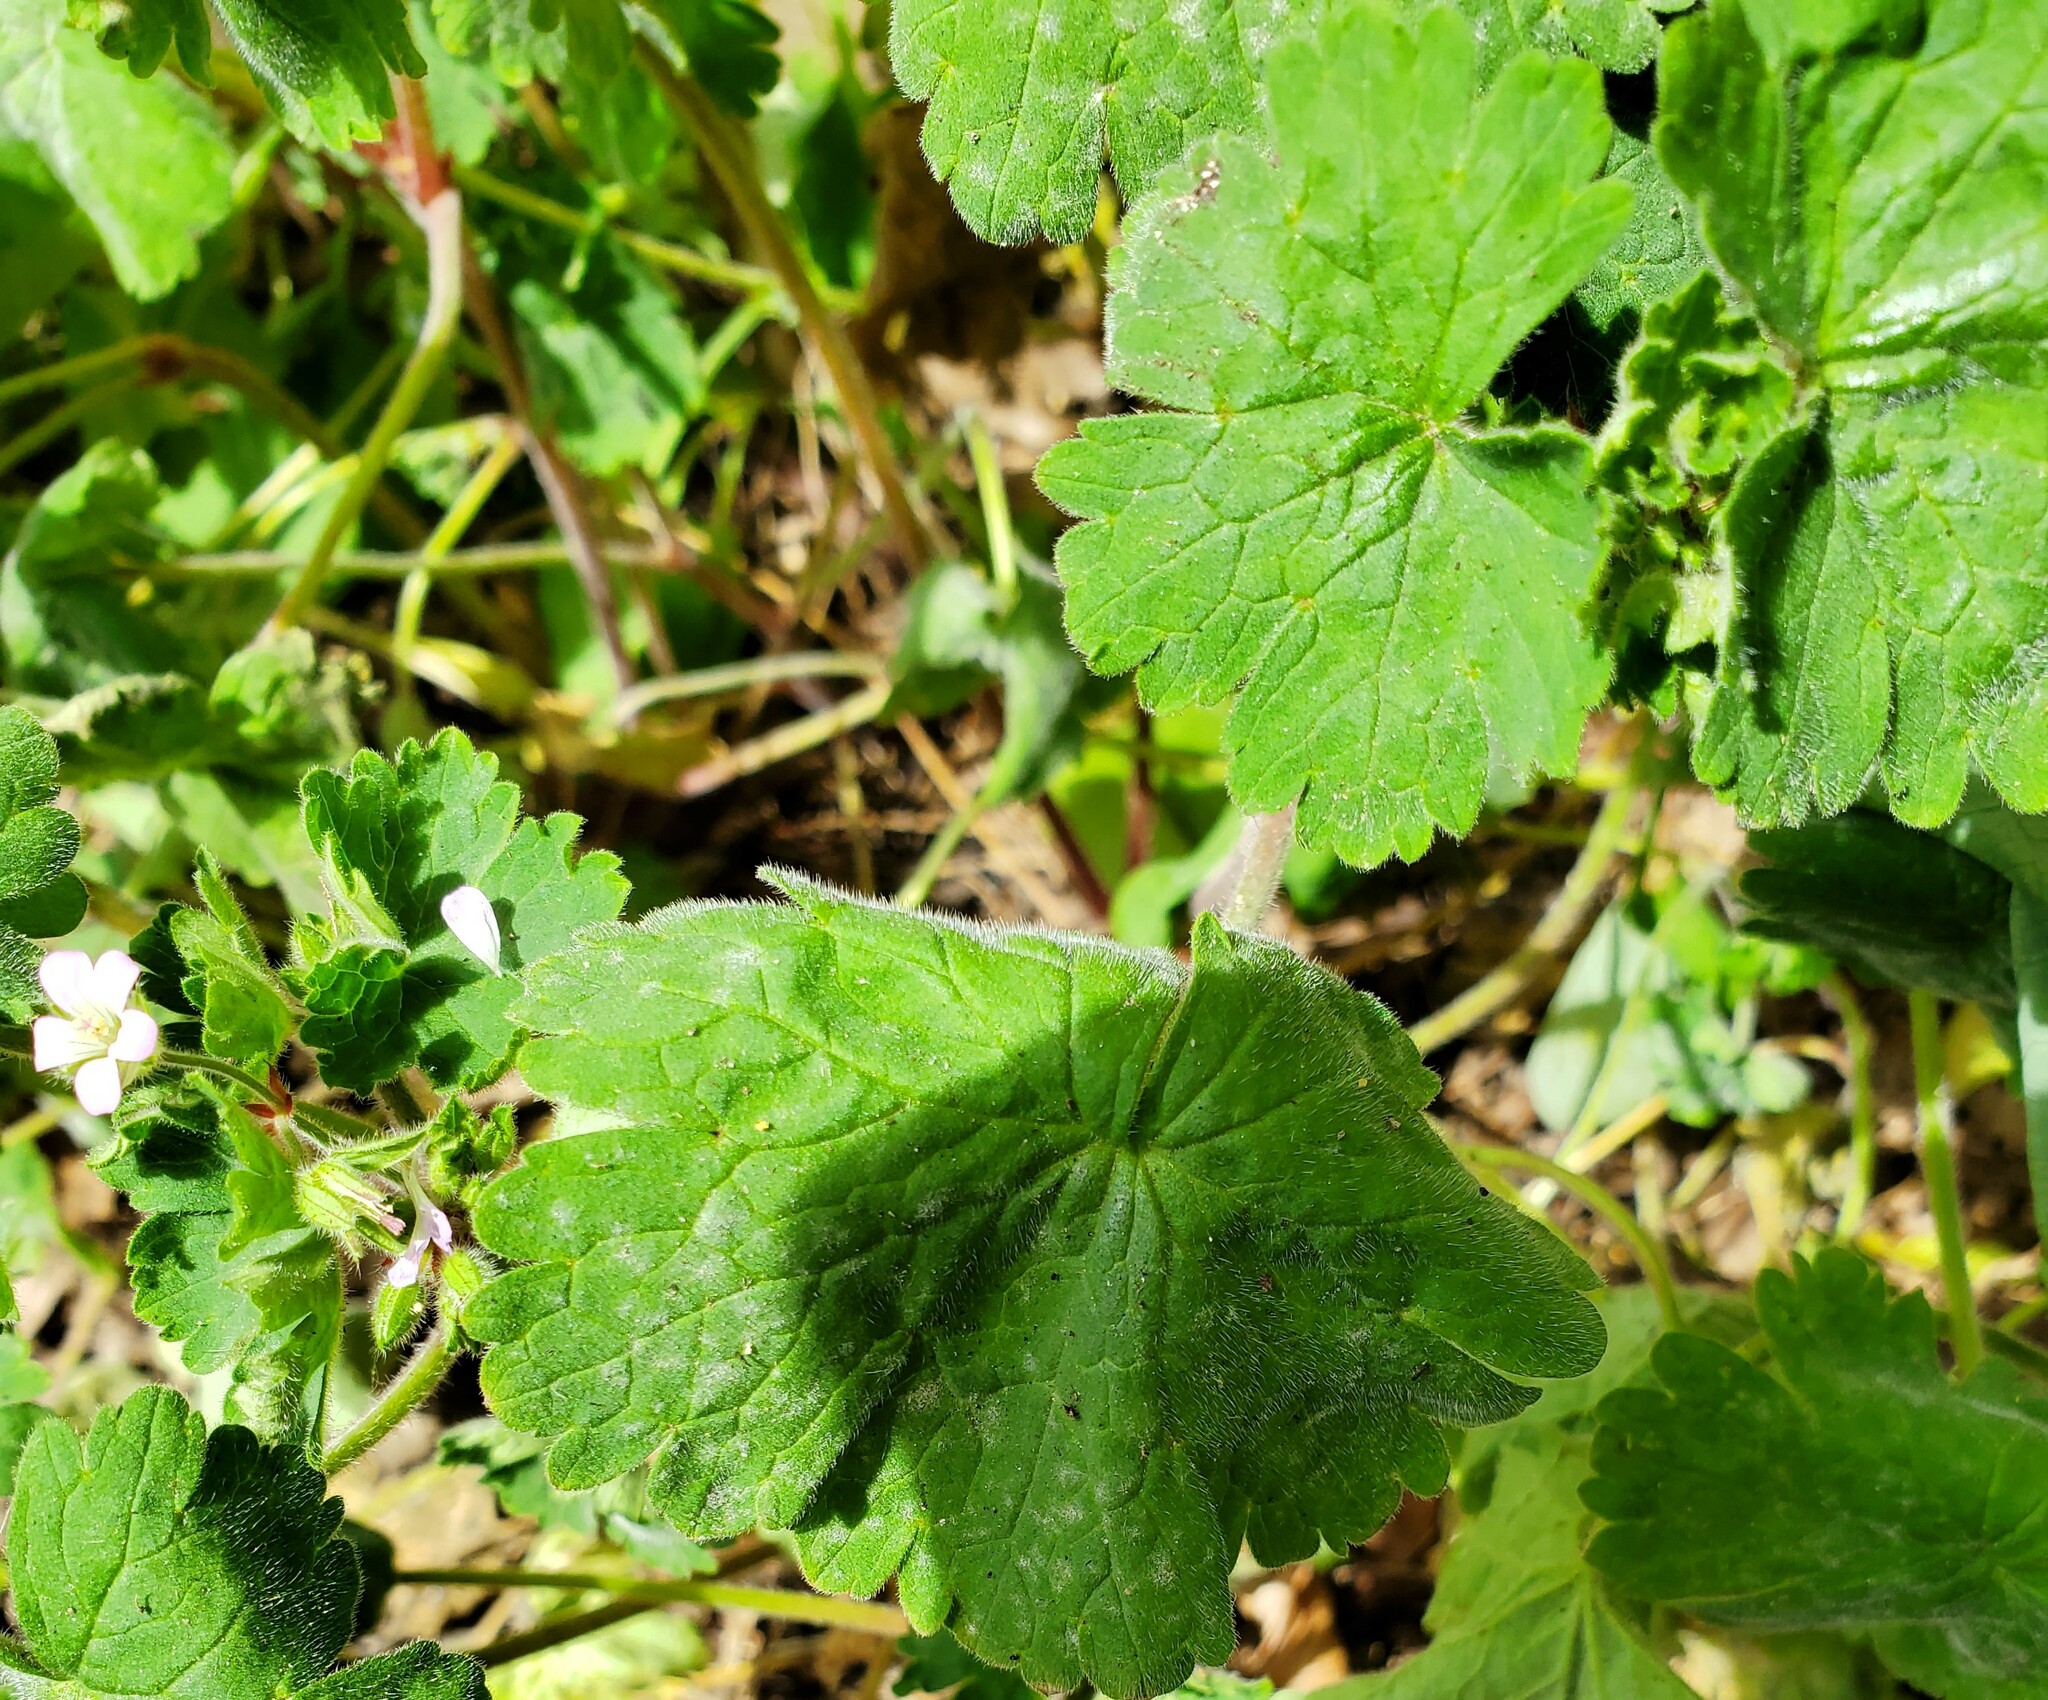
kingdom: Plantae
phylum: Tracheophyta
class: Magnoliopsida
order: Geraniales
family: Geraniaceae
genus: Geranium
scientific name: Geranium rotundifolium
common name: Round-leaved crane's-bill
